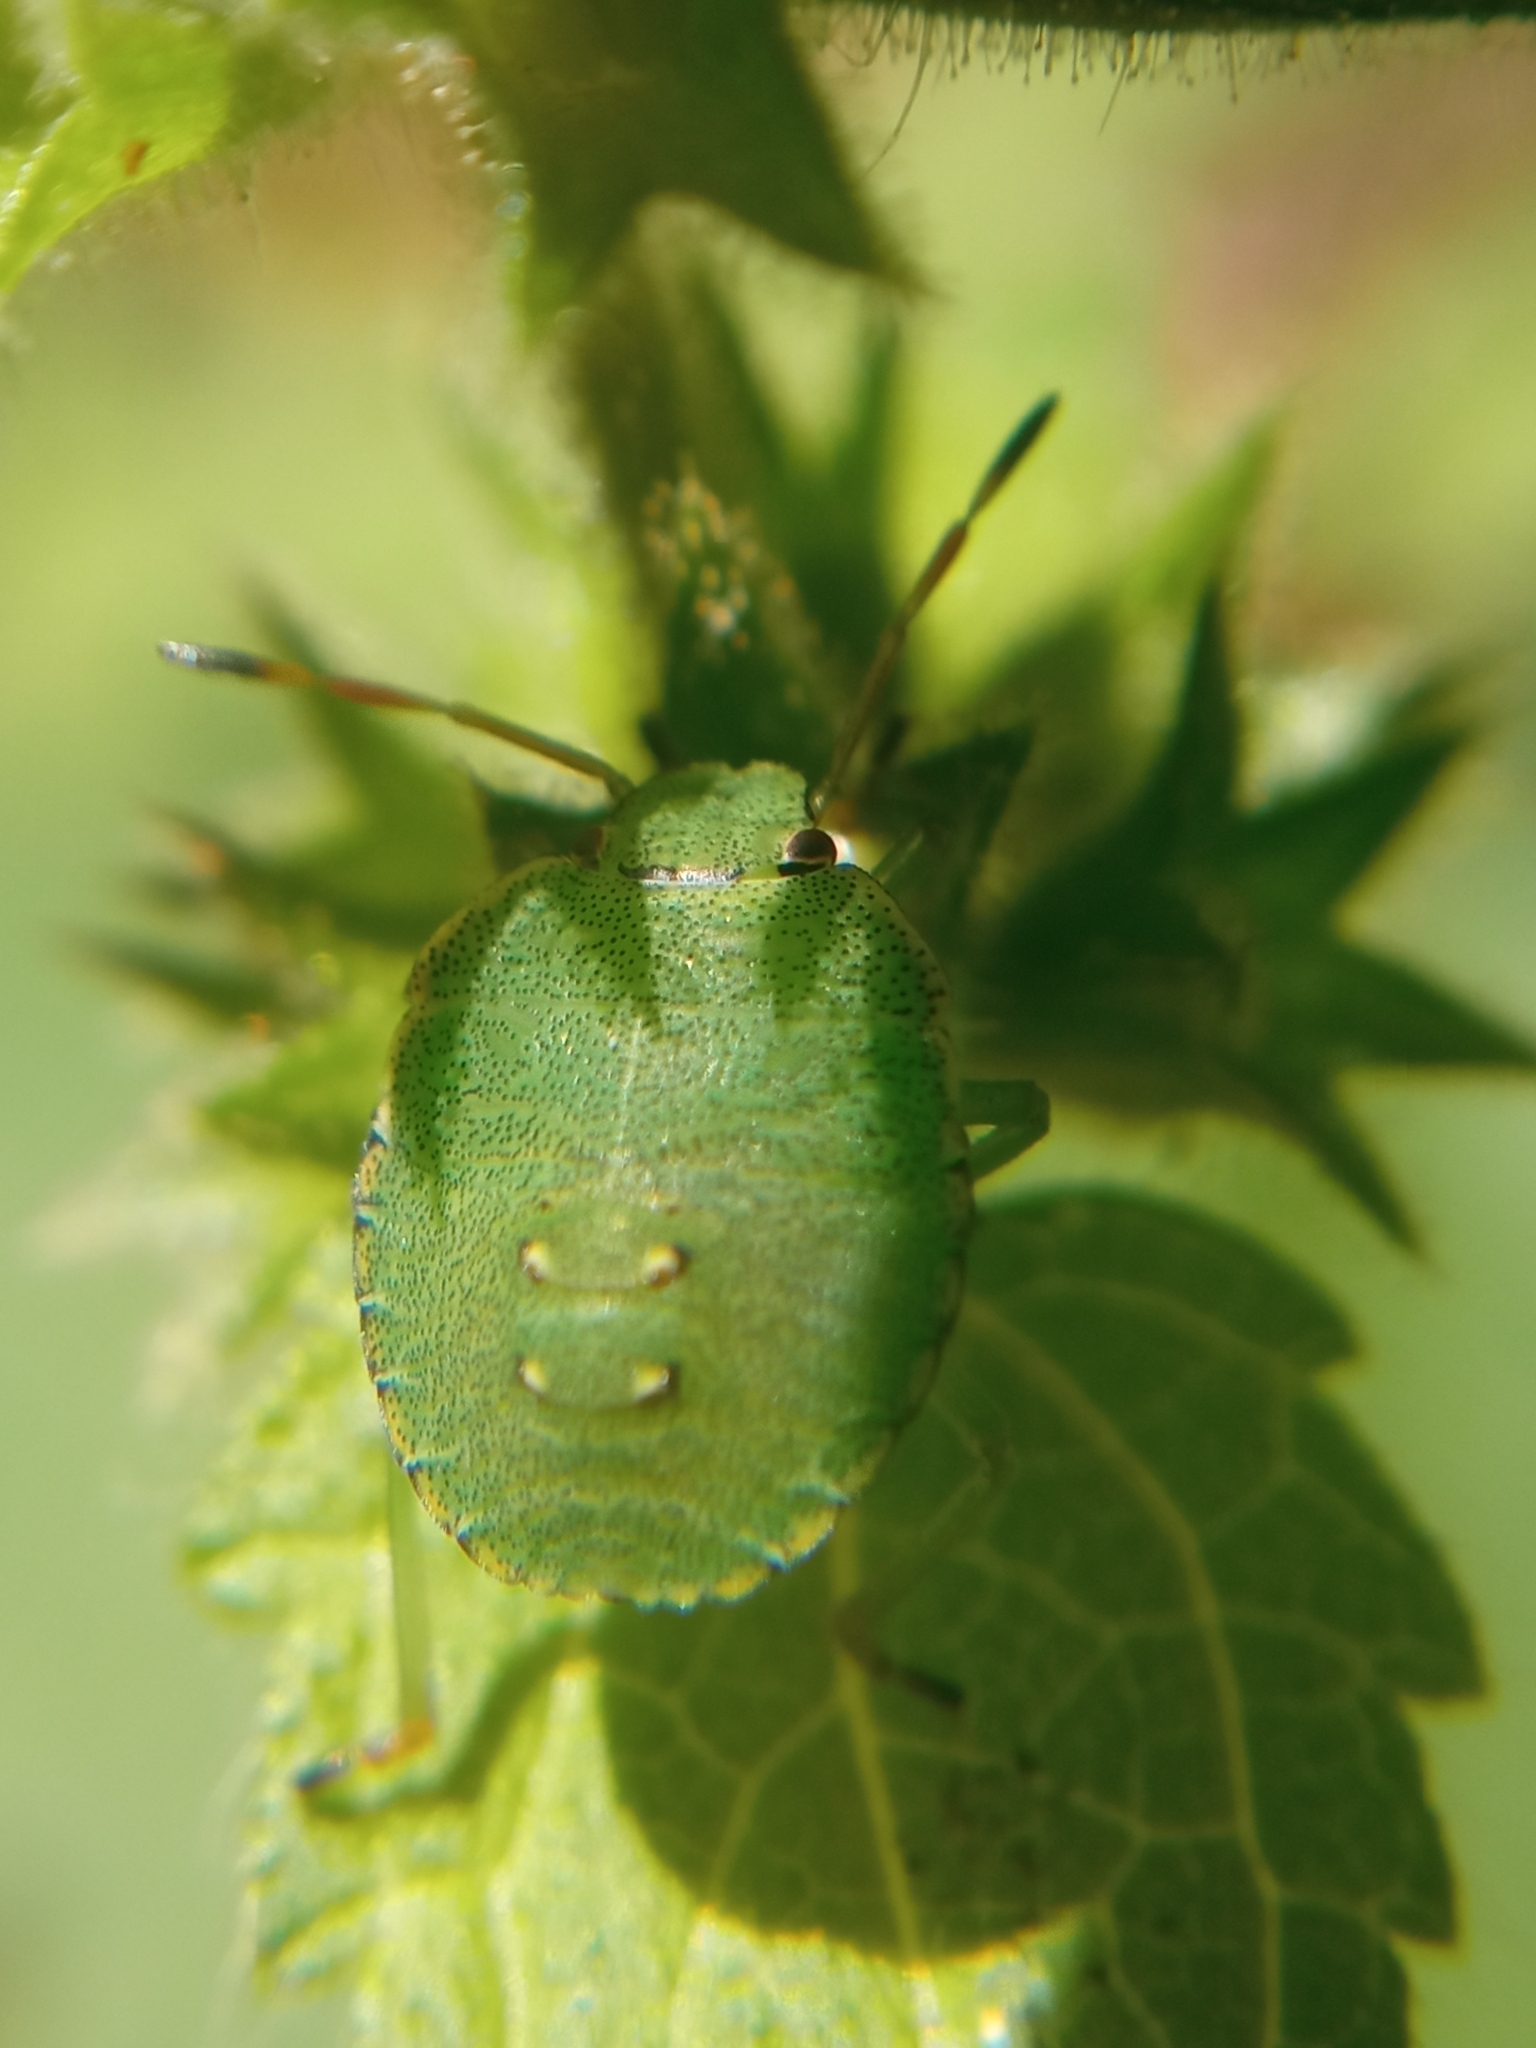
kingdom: Animalia
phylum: Arthropoda
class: Insecta
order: Hemiptera
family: Pentatomidae
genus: Palomena
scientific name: Palomena prasina
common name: Green shieldbug
